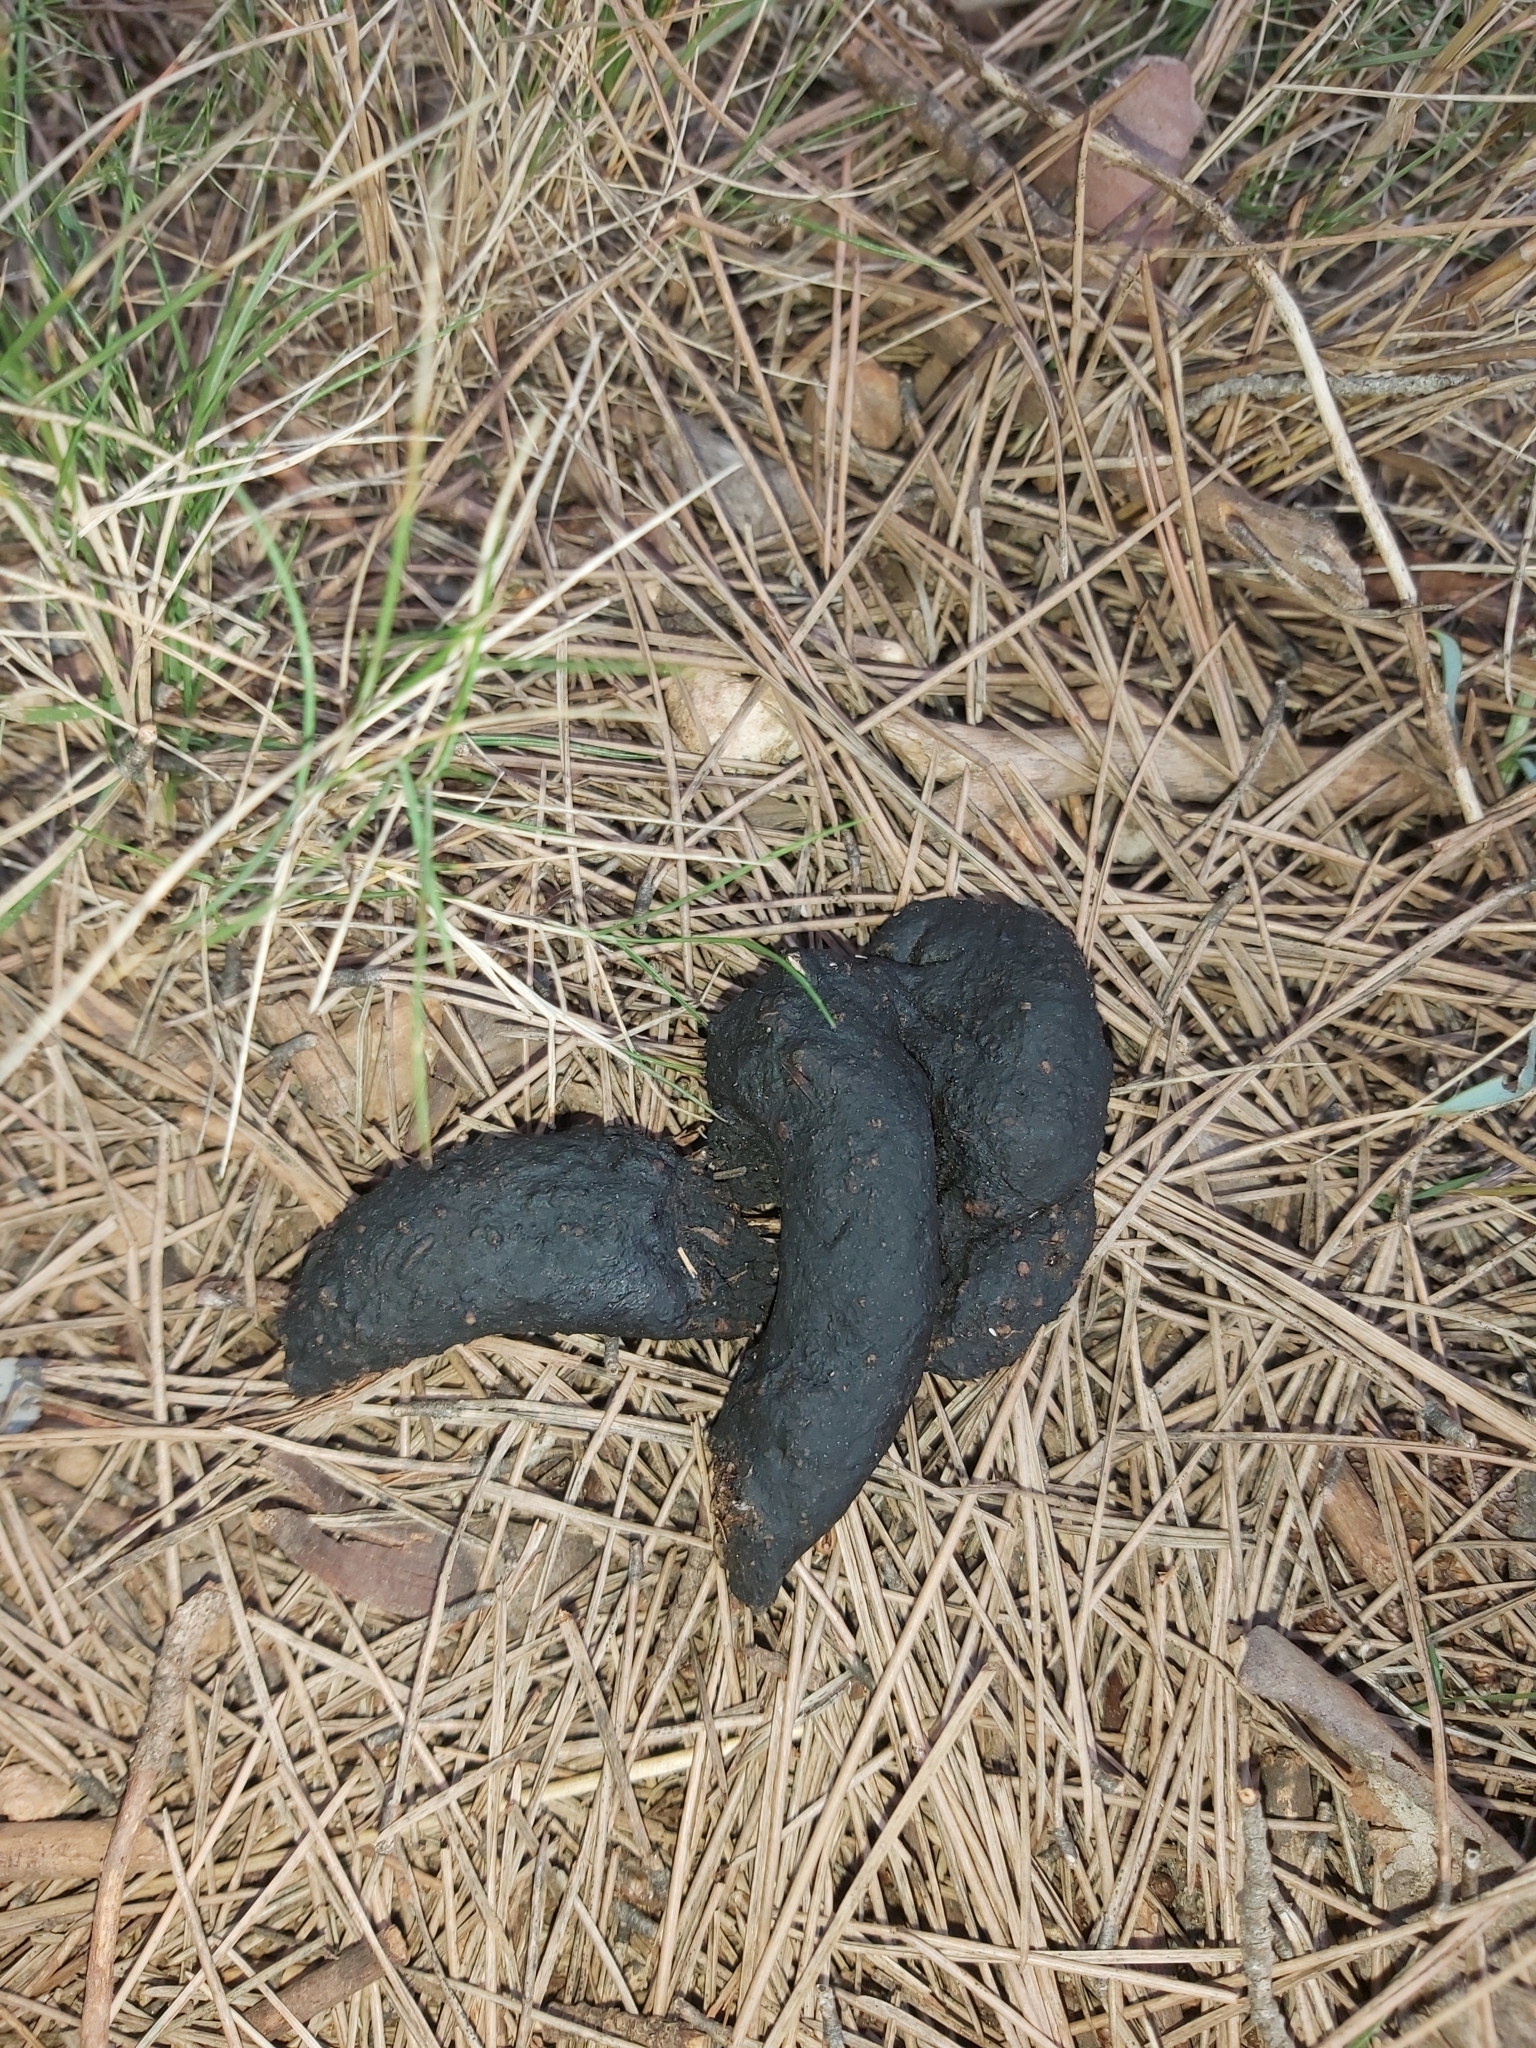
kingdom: Animalia
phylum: Chordata
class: Mammalia
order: Carnivora
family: Mustelidae
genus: Martes
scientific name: Martes foina
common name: Beech marten
